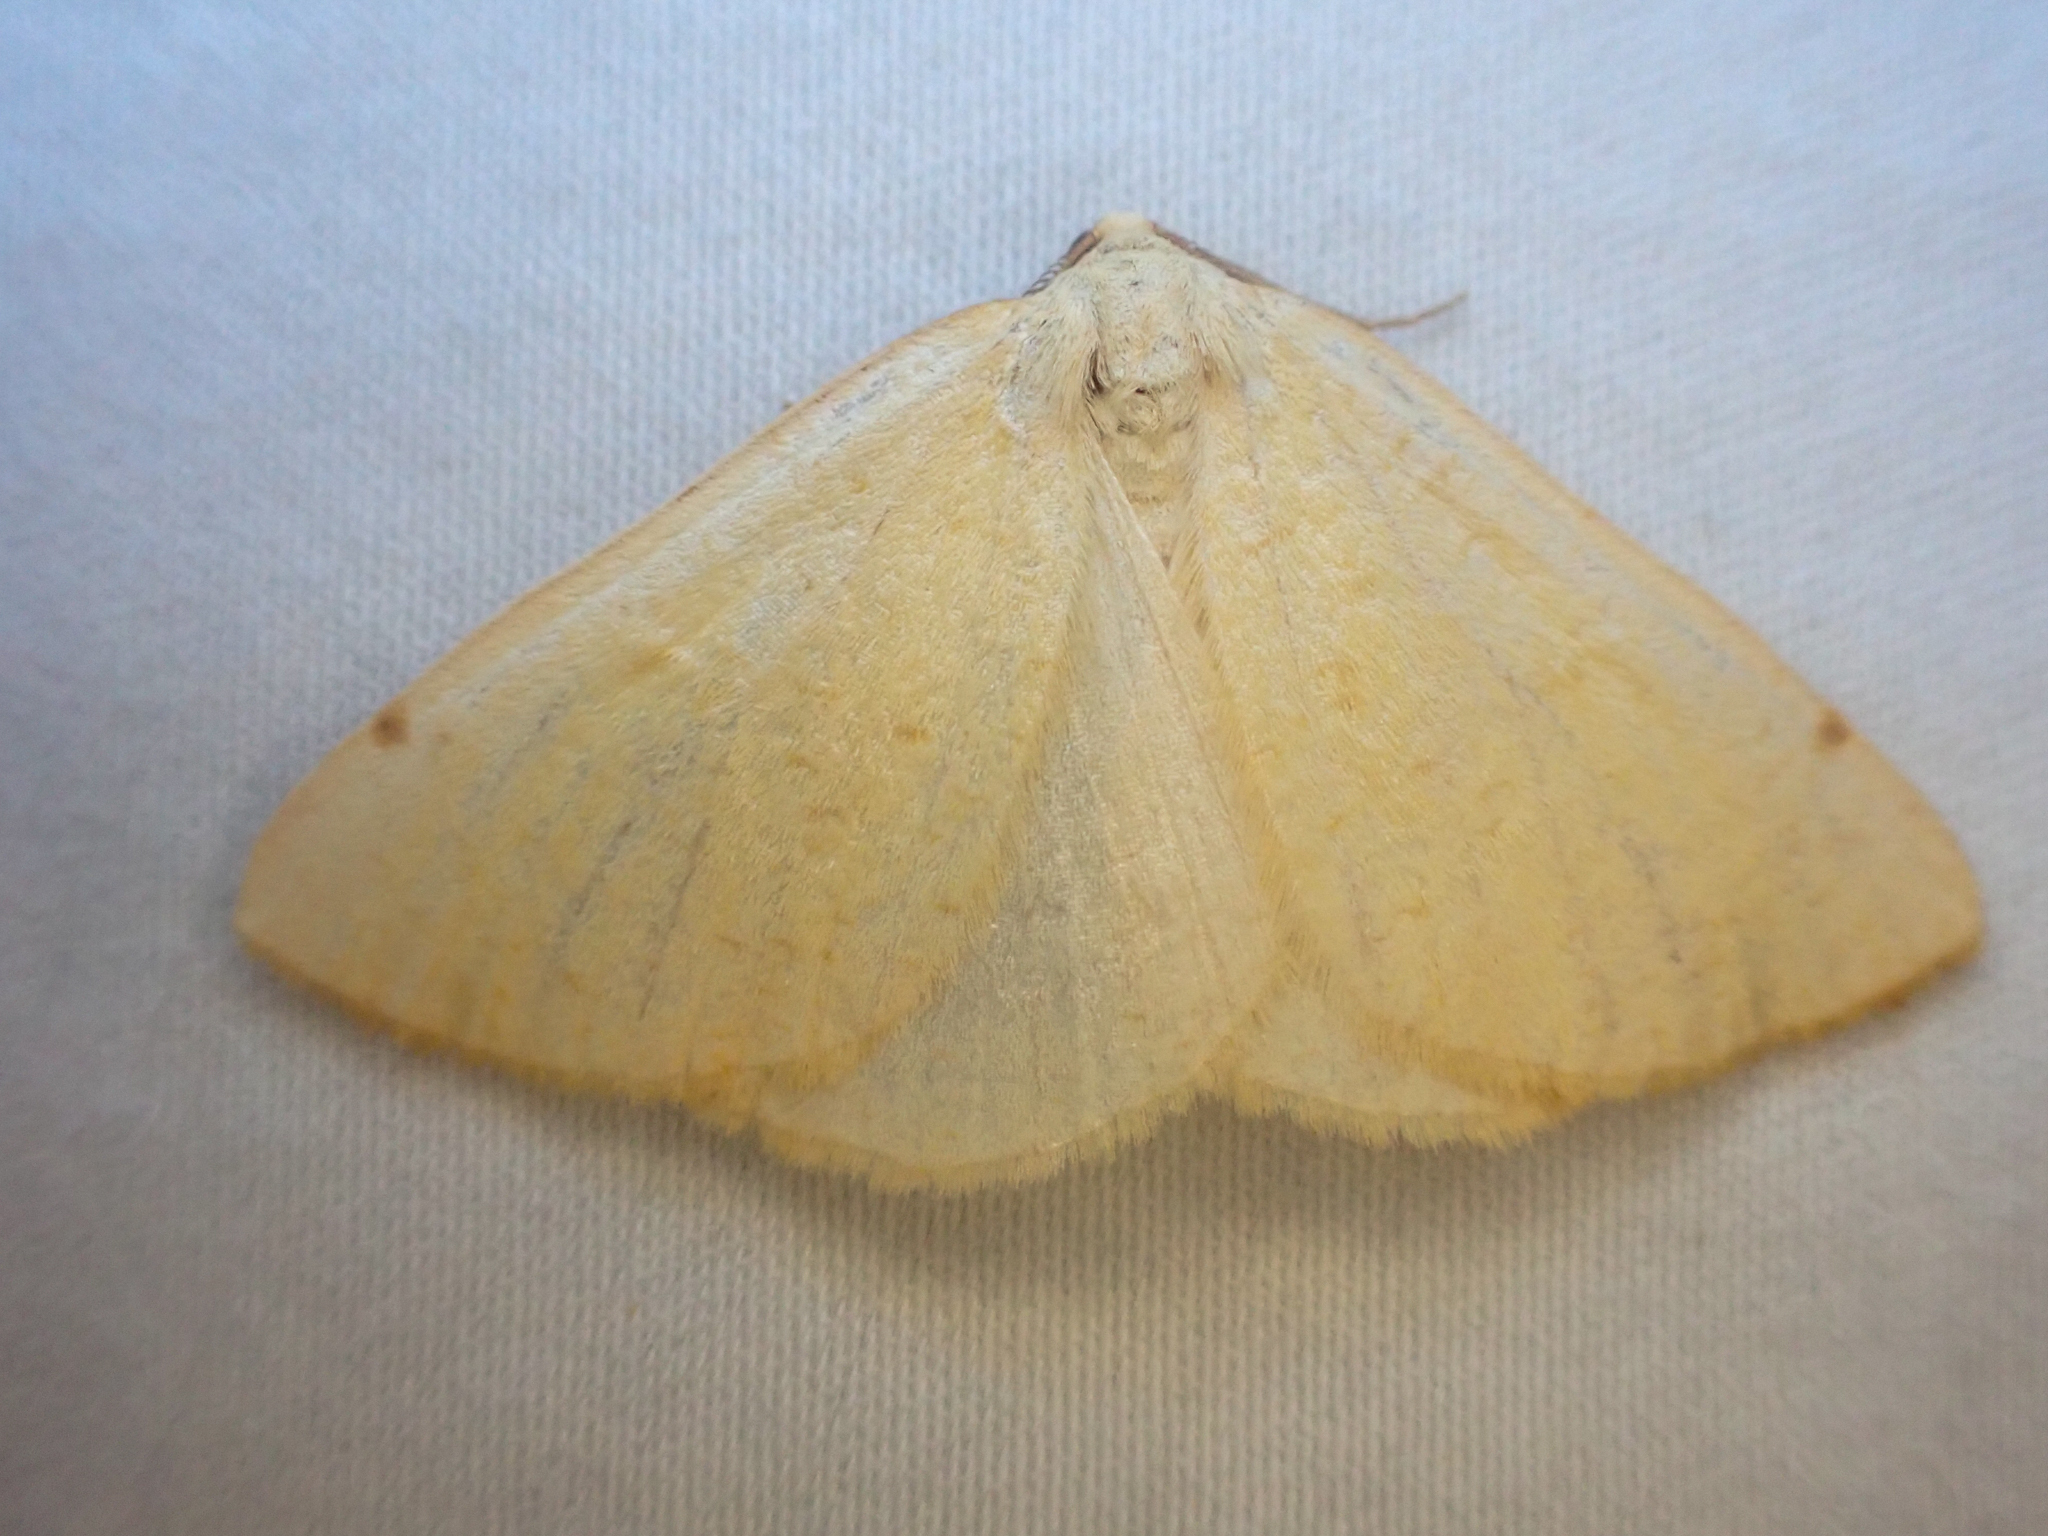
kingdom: Animalia
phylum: Arthropoda
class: Insecta
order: Lepidoptera
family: Geometridae
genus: Hesperumia
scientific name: Hesperumia sulphuraria
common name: Sulphur moth
